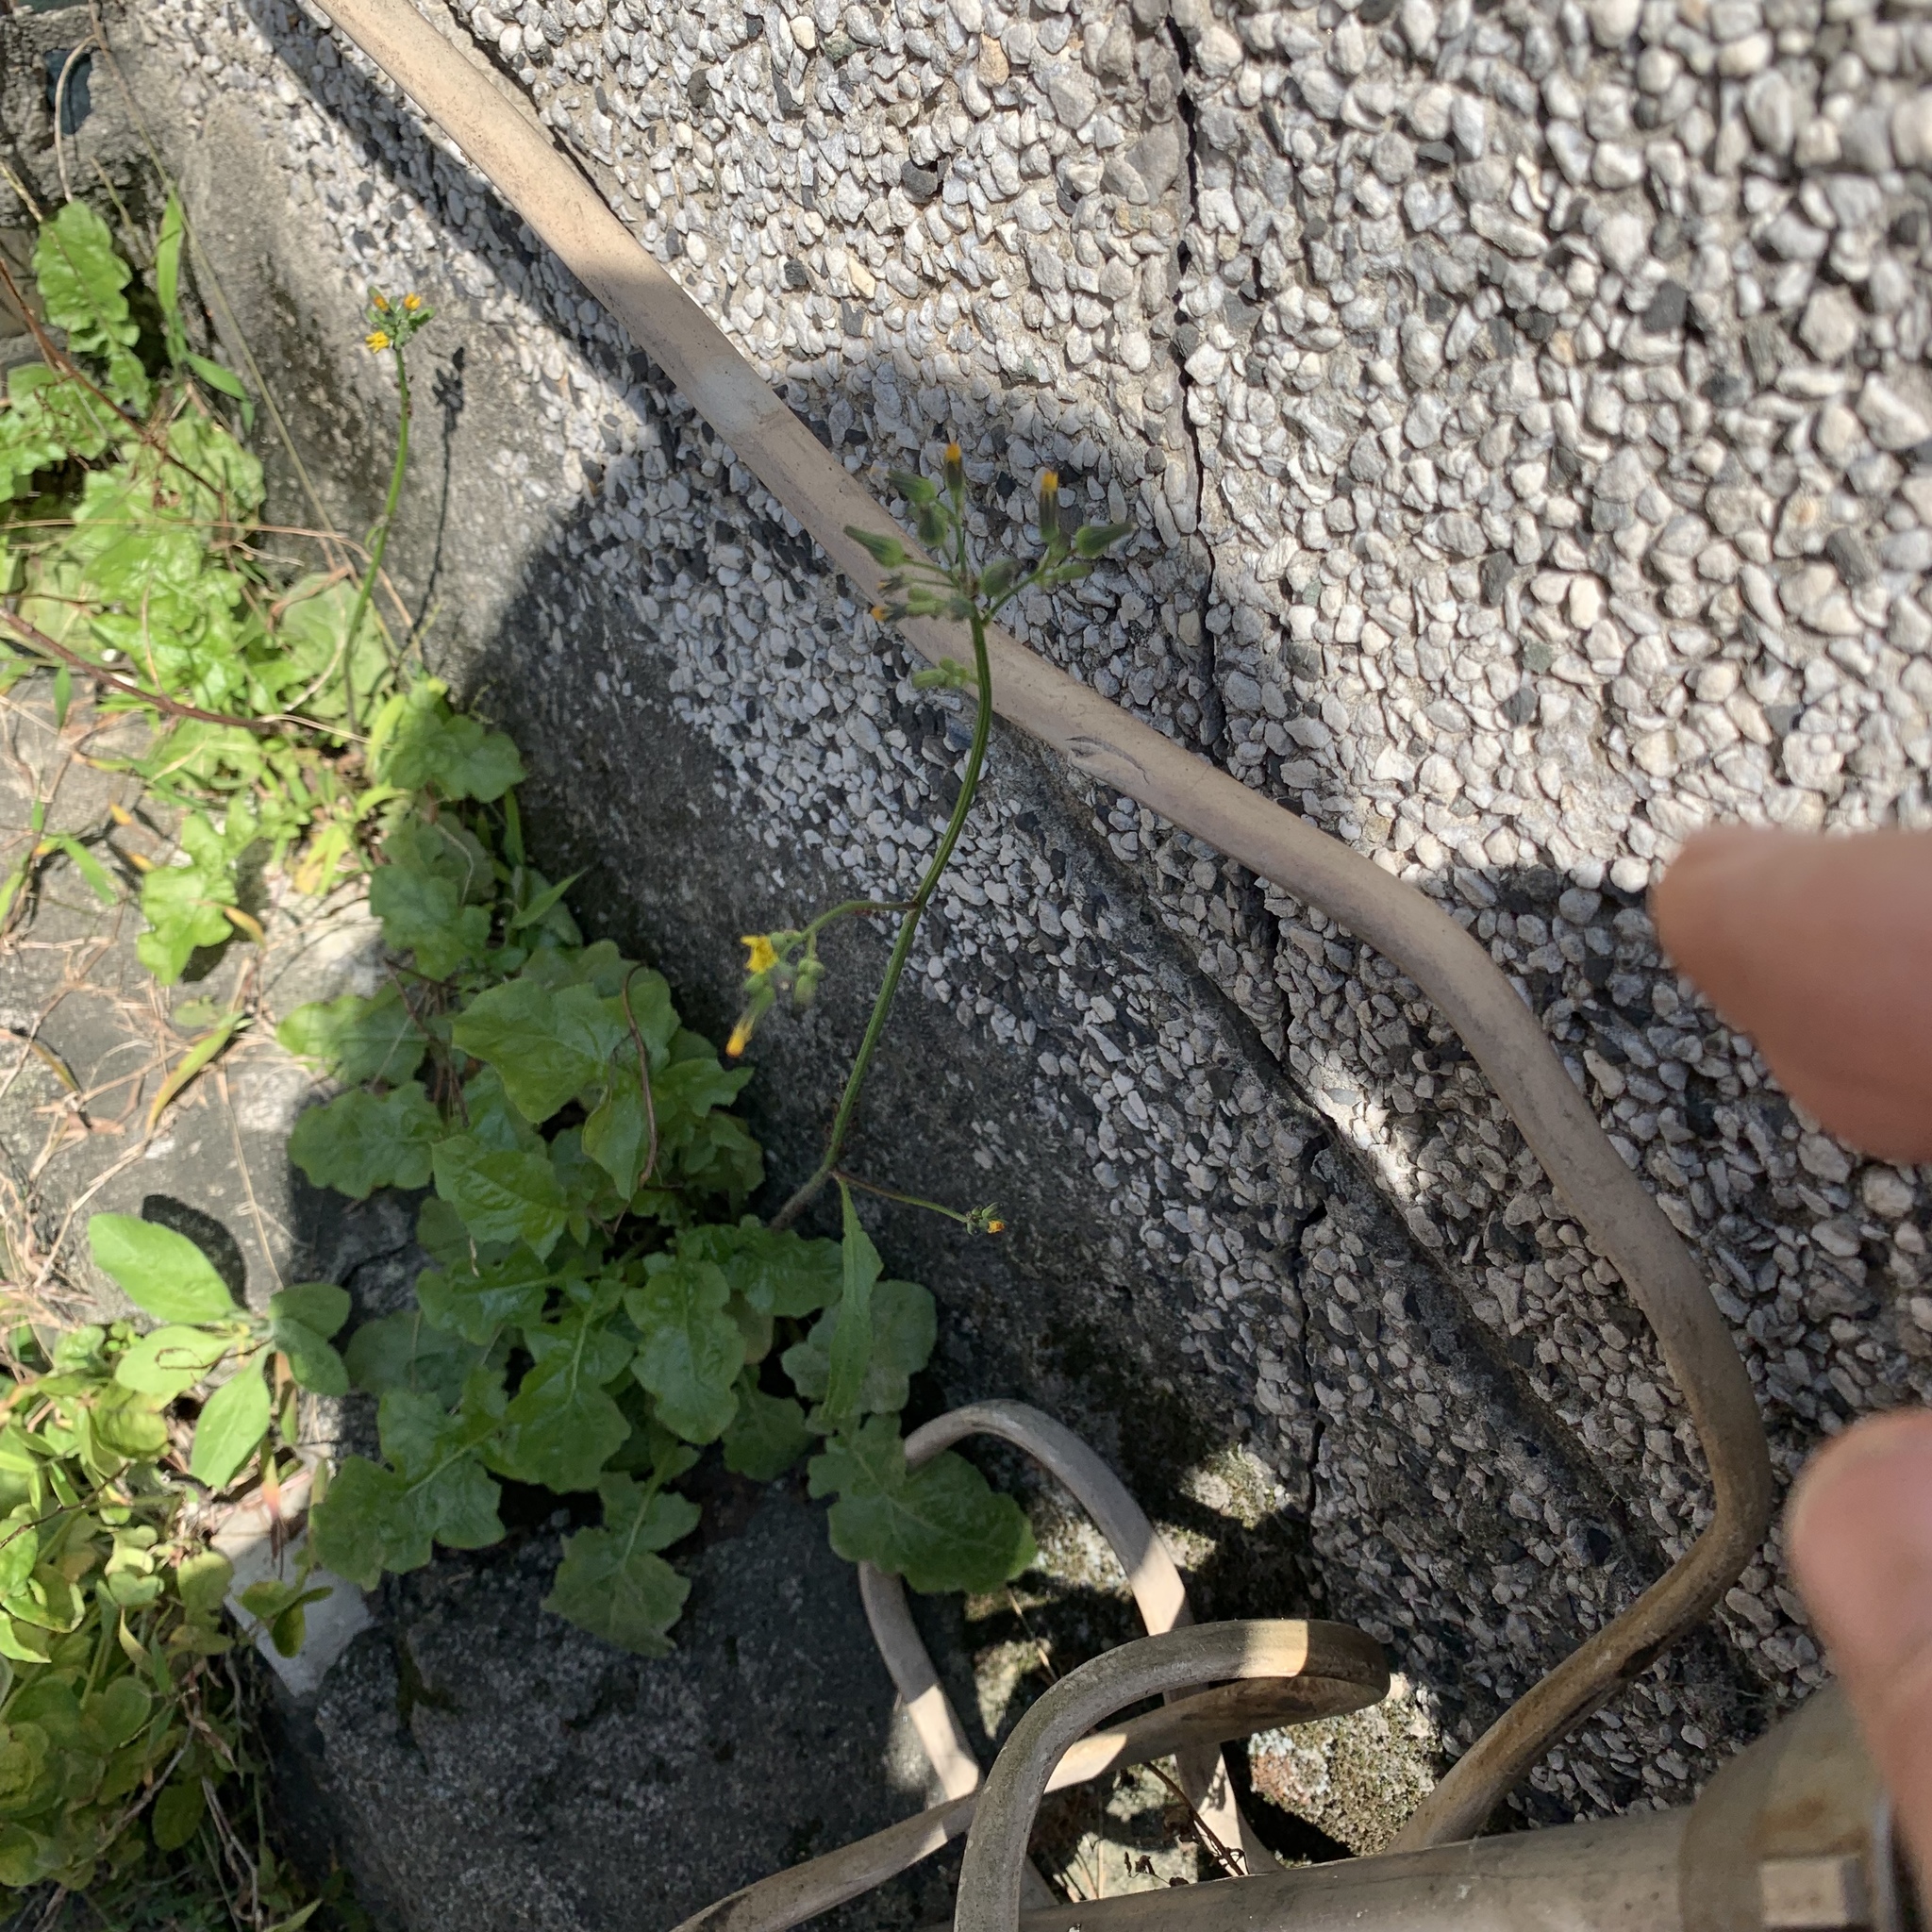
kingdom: Plantae
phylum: Tracheophyta
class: Magnoliopsida
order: Asterales
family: Asteraceae
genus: Youngia
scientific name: Youngia japonica
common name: Oriental false hawksbeard
